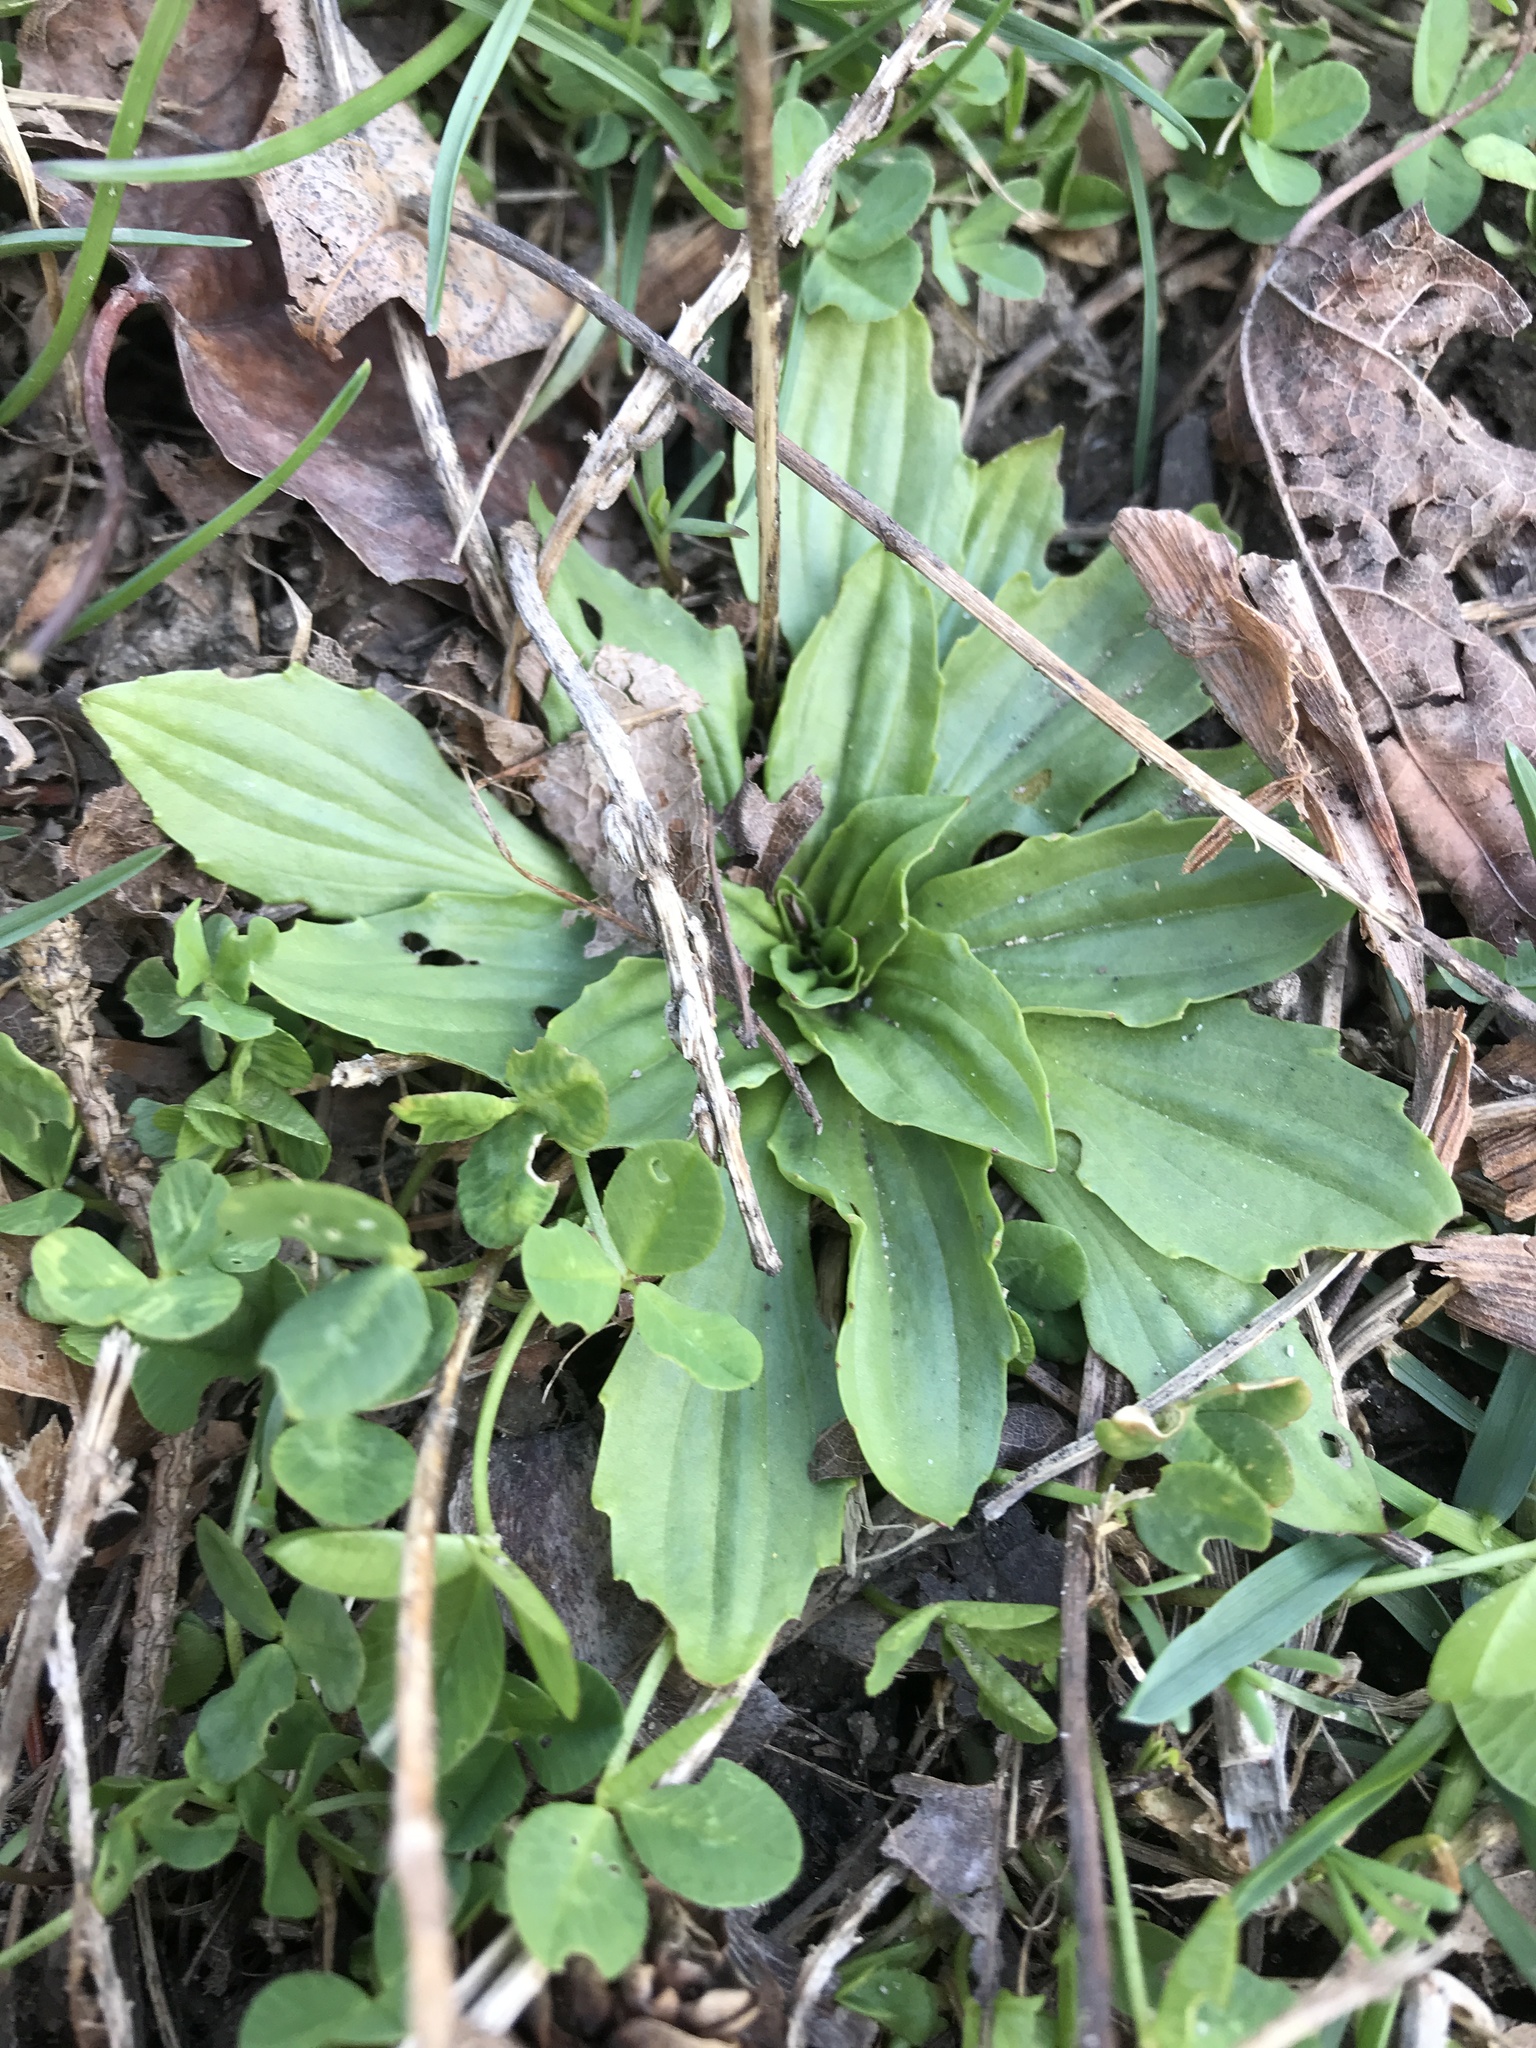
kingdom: Plantae
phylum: Tracheophyta
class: Magnoliopsida
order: Lamiales
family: Plantaginaceae
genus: Plantago
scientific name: Plantago lanceolata
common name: Ribwort plantain
